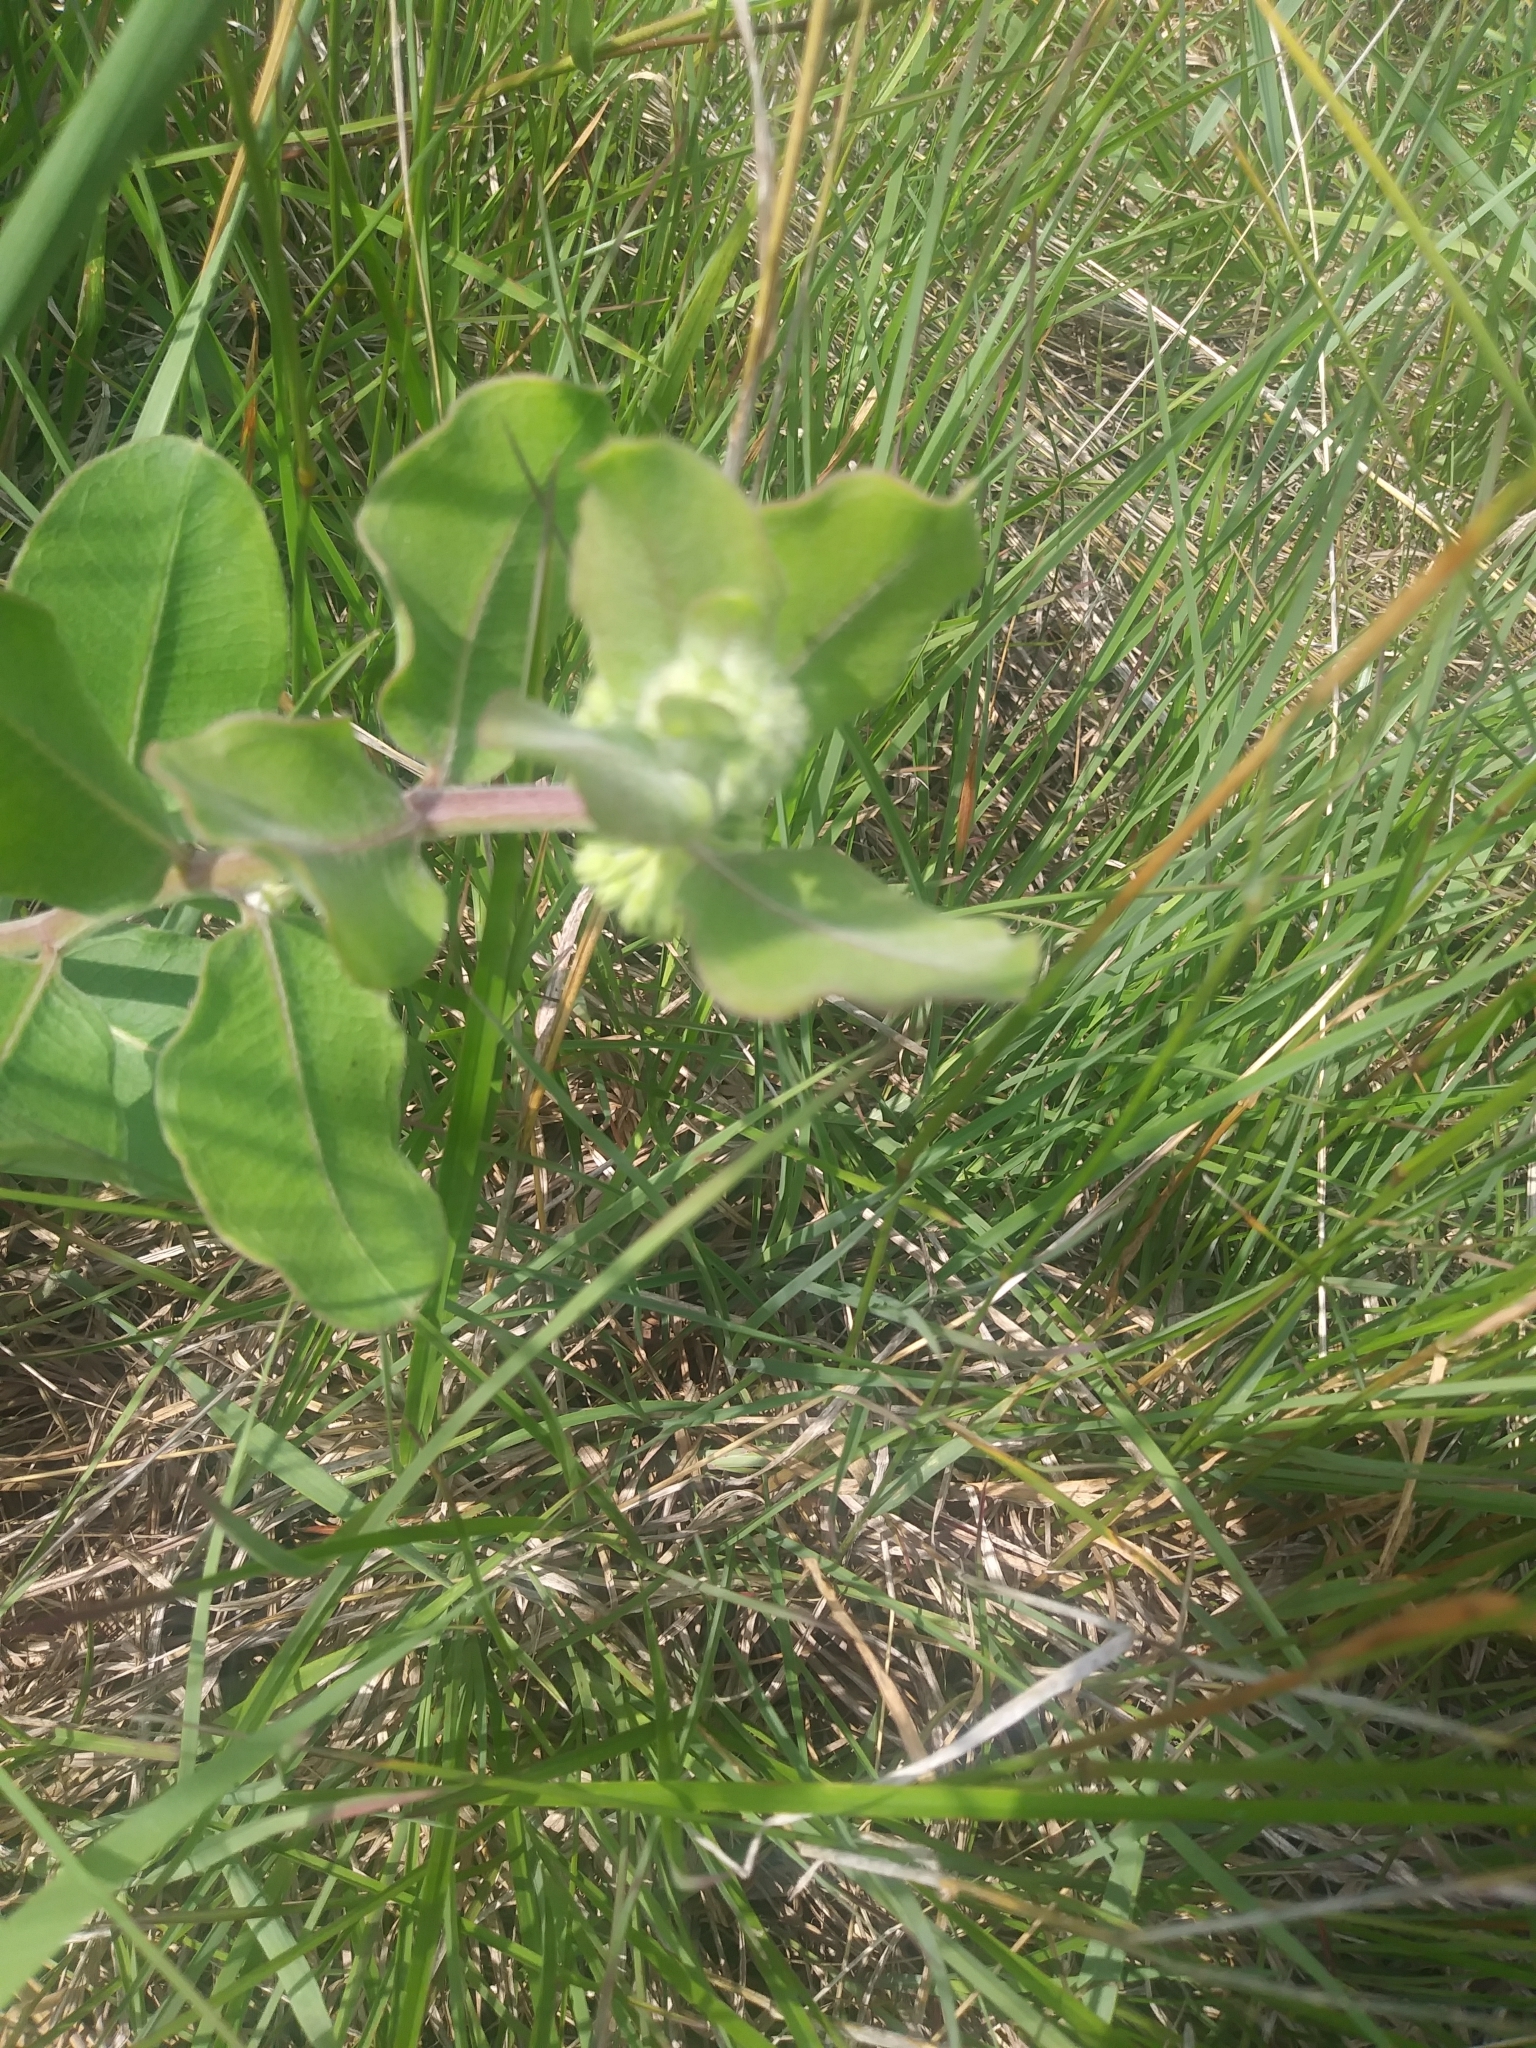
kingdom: Plantae
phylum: Tracheophyta
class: Magnoliopsida
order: Gentianales
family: Apocynaceae
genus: Asclepias
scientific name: Asclepias viridiflora
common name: Green comet milkweed
